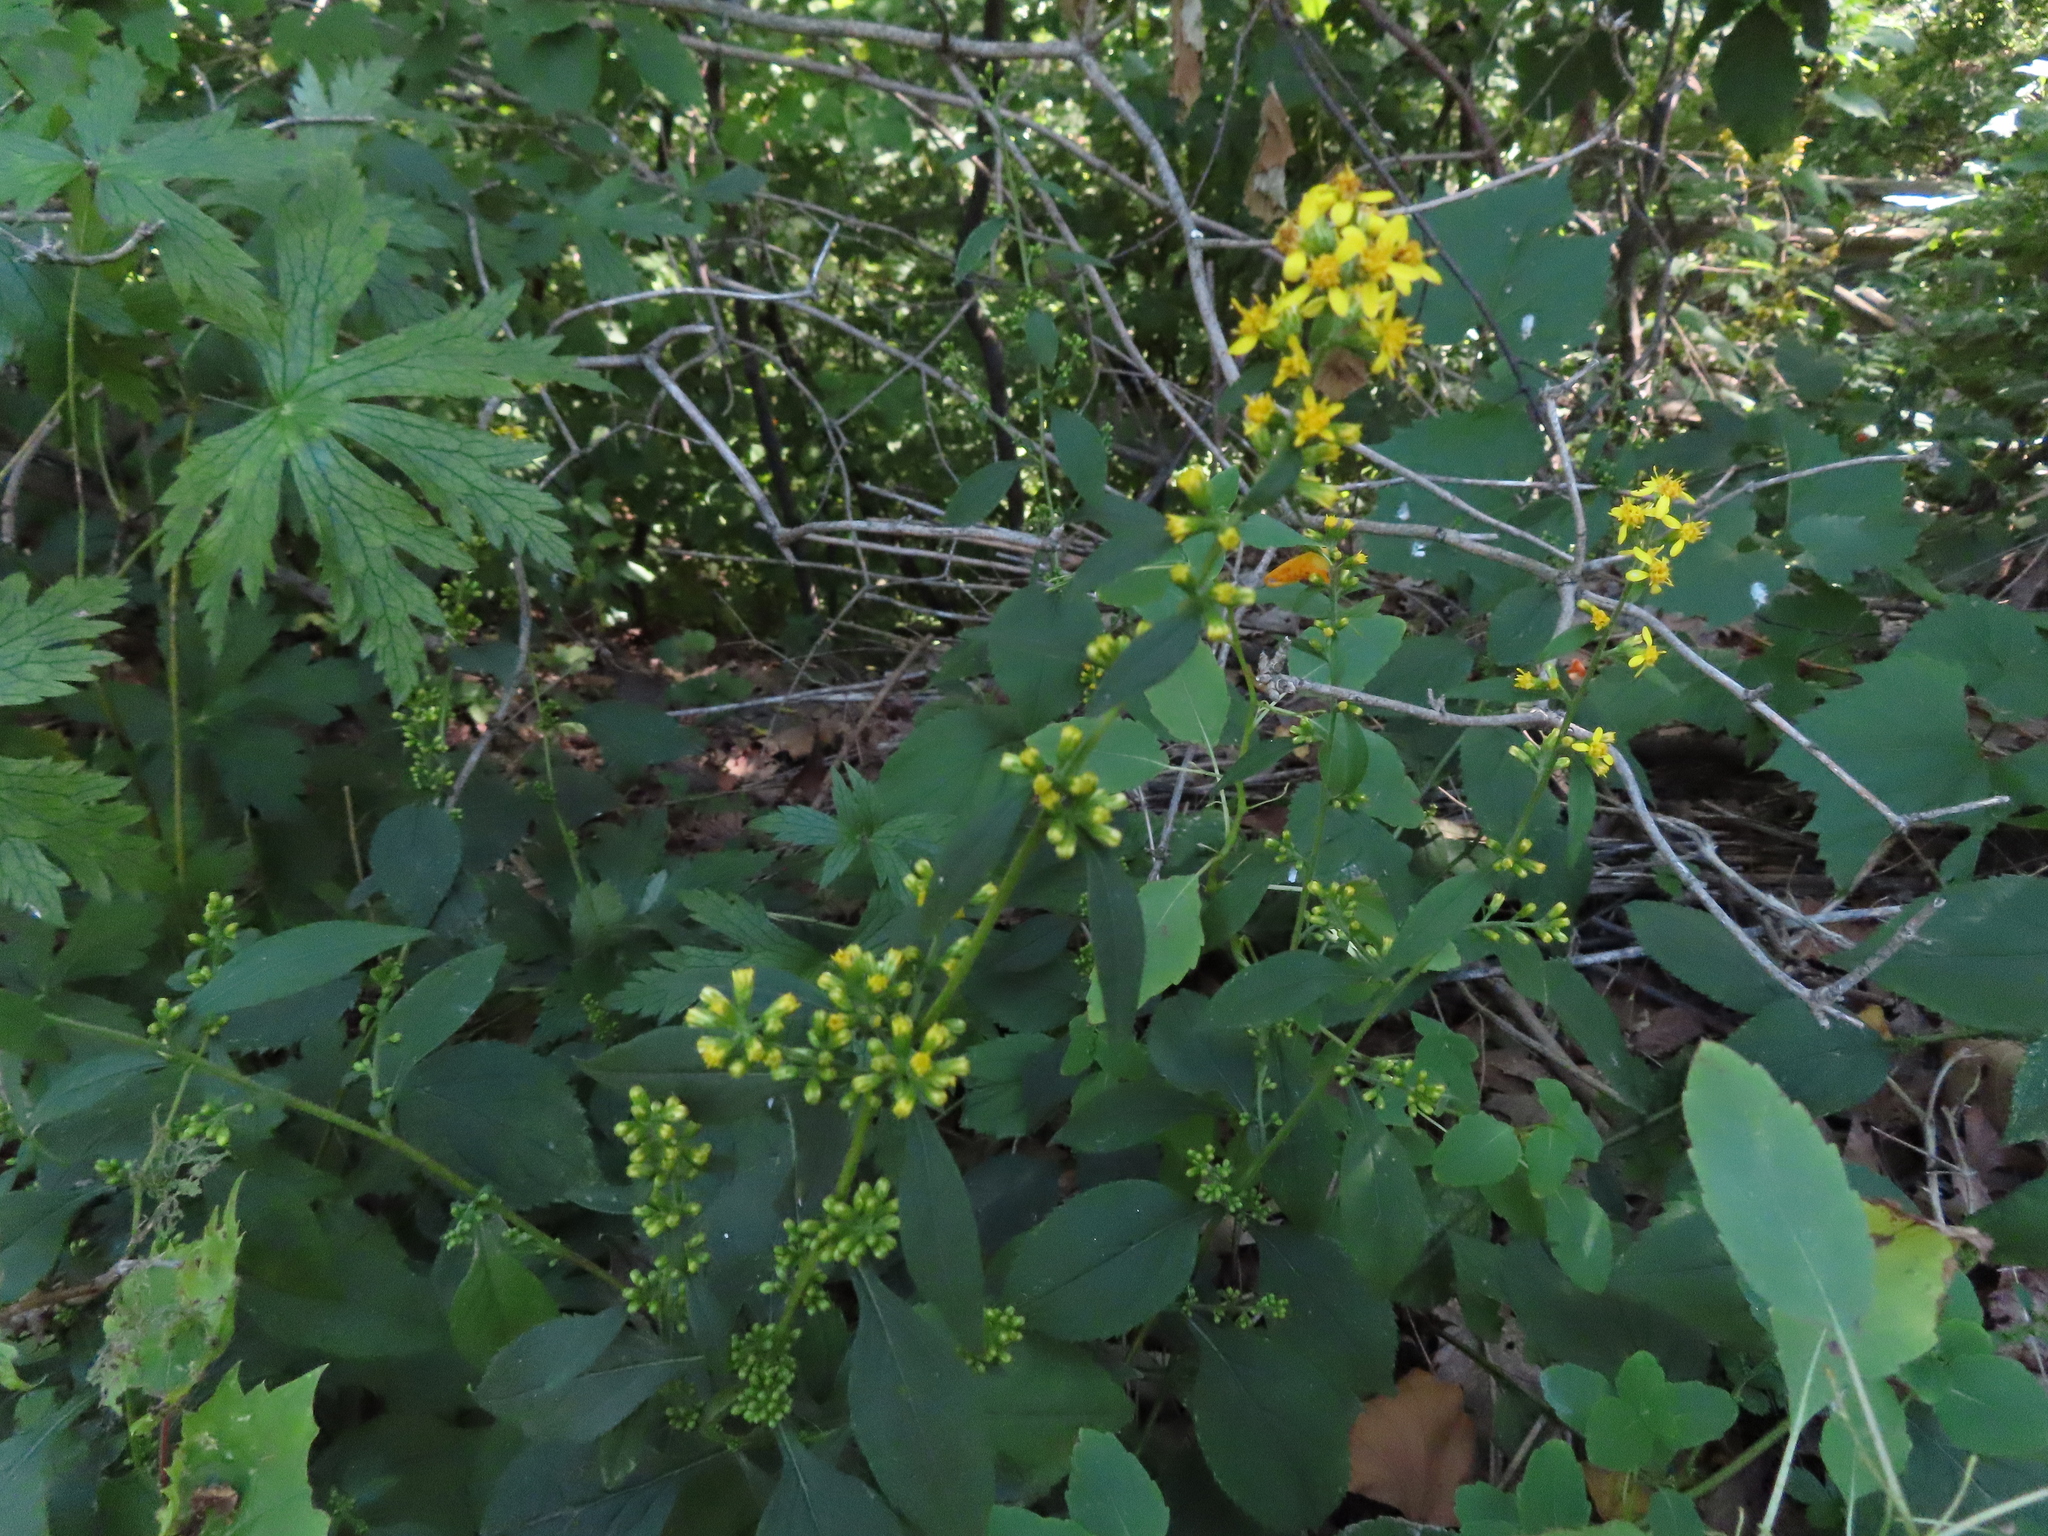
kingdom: Plantae
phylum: Tracheophyta
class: Magnoliopsida
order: Asterales
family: Asteraceae
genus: Solidago
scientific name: Solidago flexicaulis
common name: Zig-zag goldenrod
